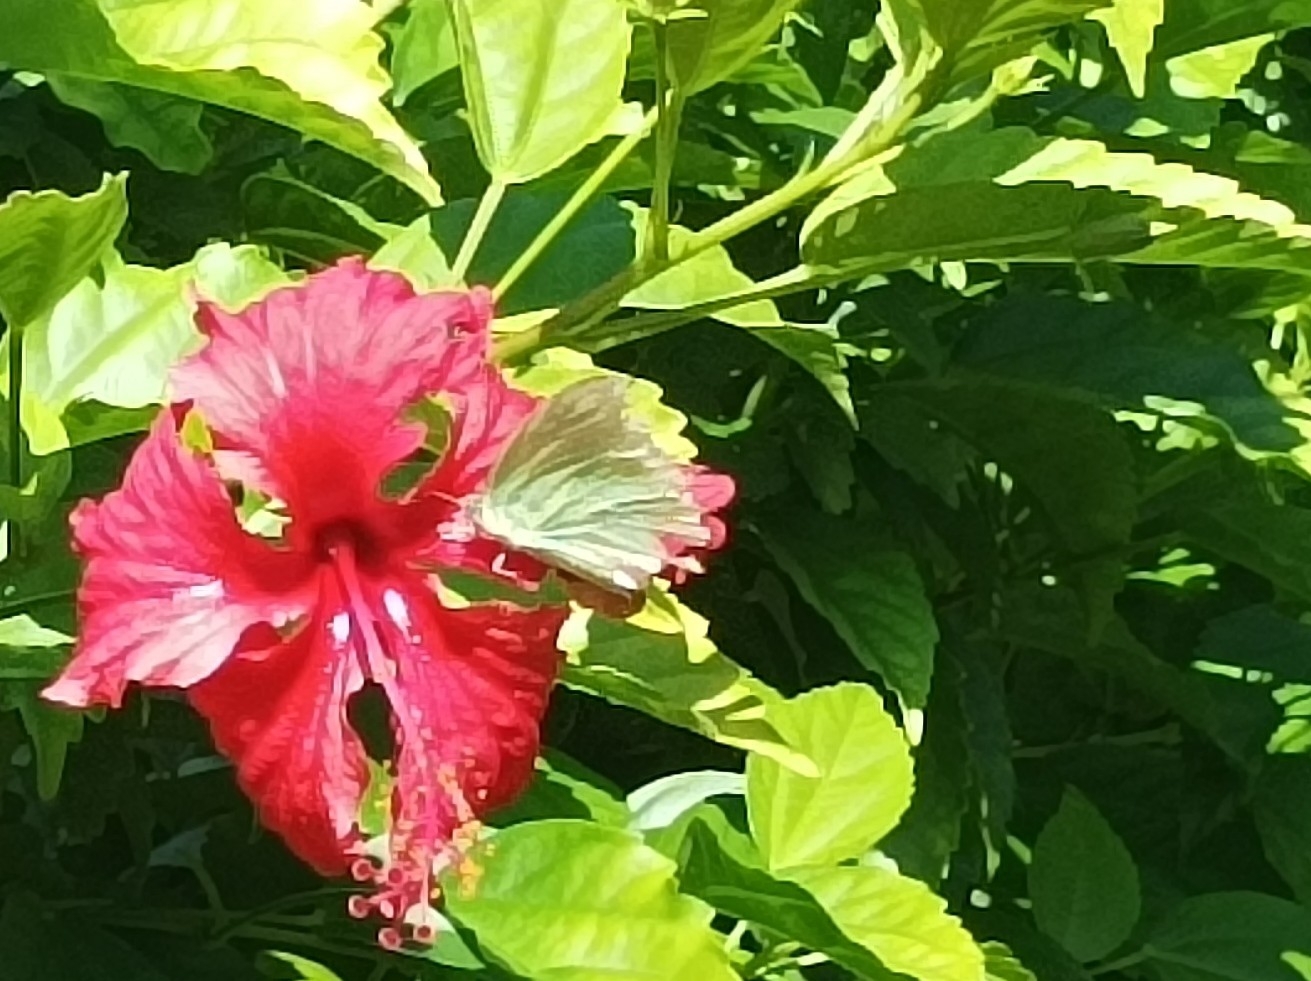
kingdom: Animalia
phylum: Arthropoda
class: Insecta
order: Lepidoptera
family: Pieridae
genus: Catopsilia
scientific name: Catopsilia pomona
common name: Common emigrant
